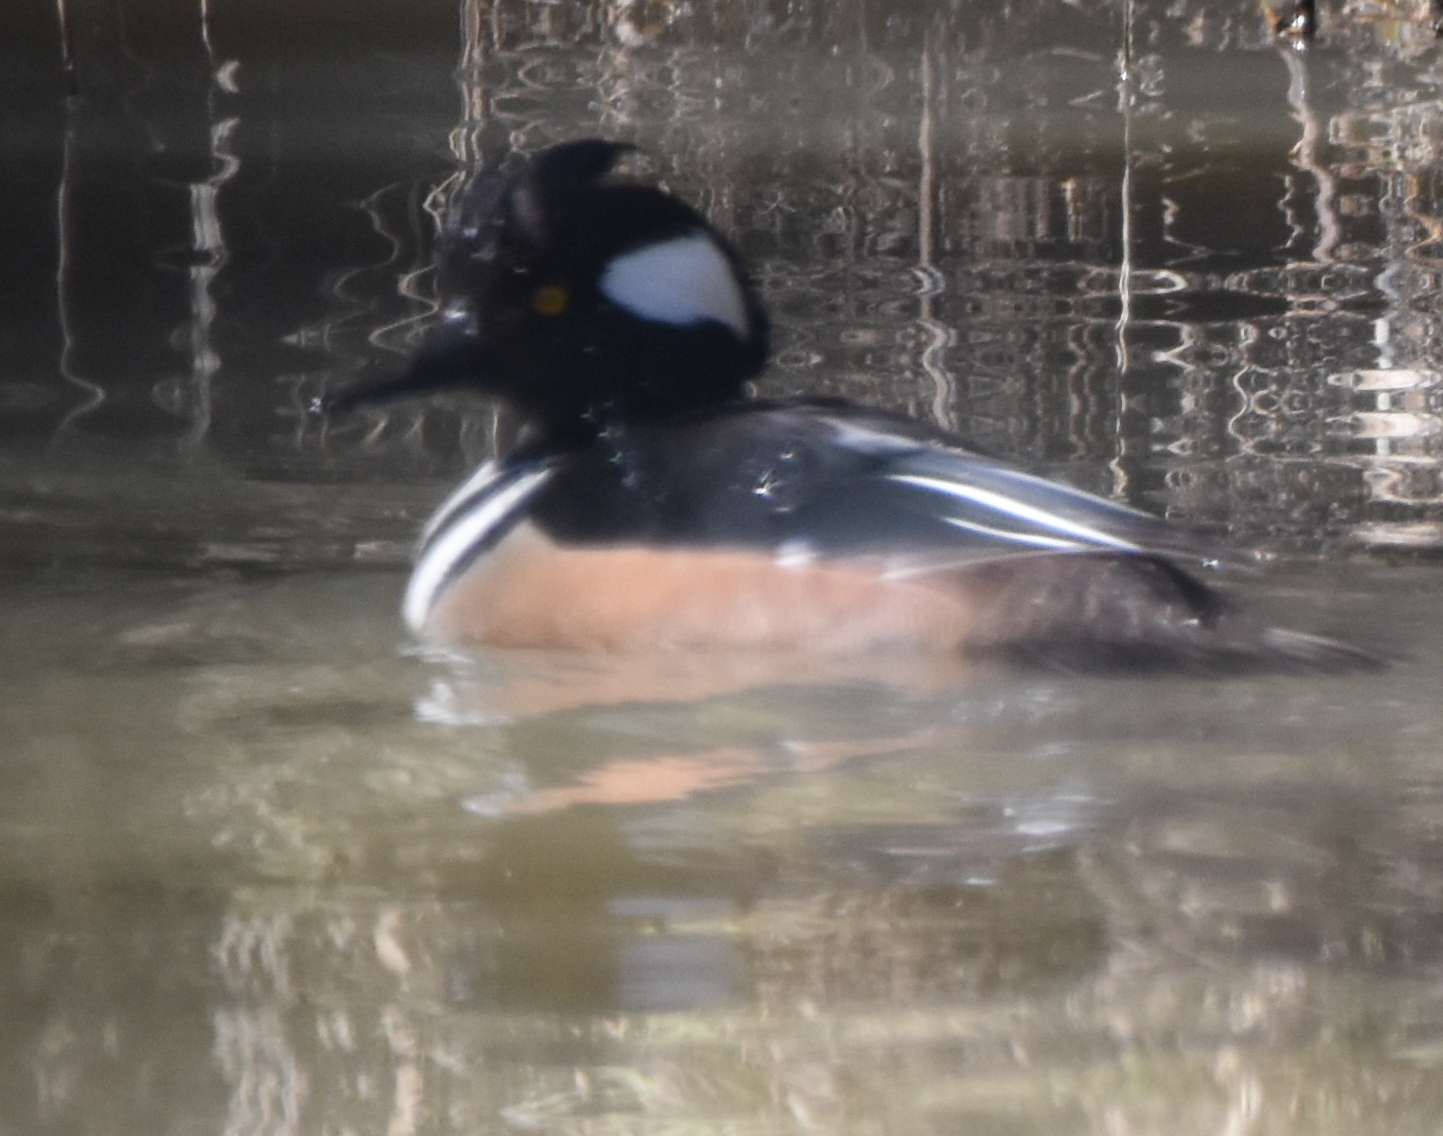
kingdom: Animalia
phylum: Chordata
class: Aves
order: Anseriformes
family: Anatidae
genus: Lophodytes
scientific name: Lophodytes cucullatus
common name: Hooded merganser
